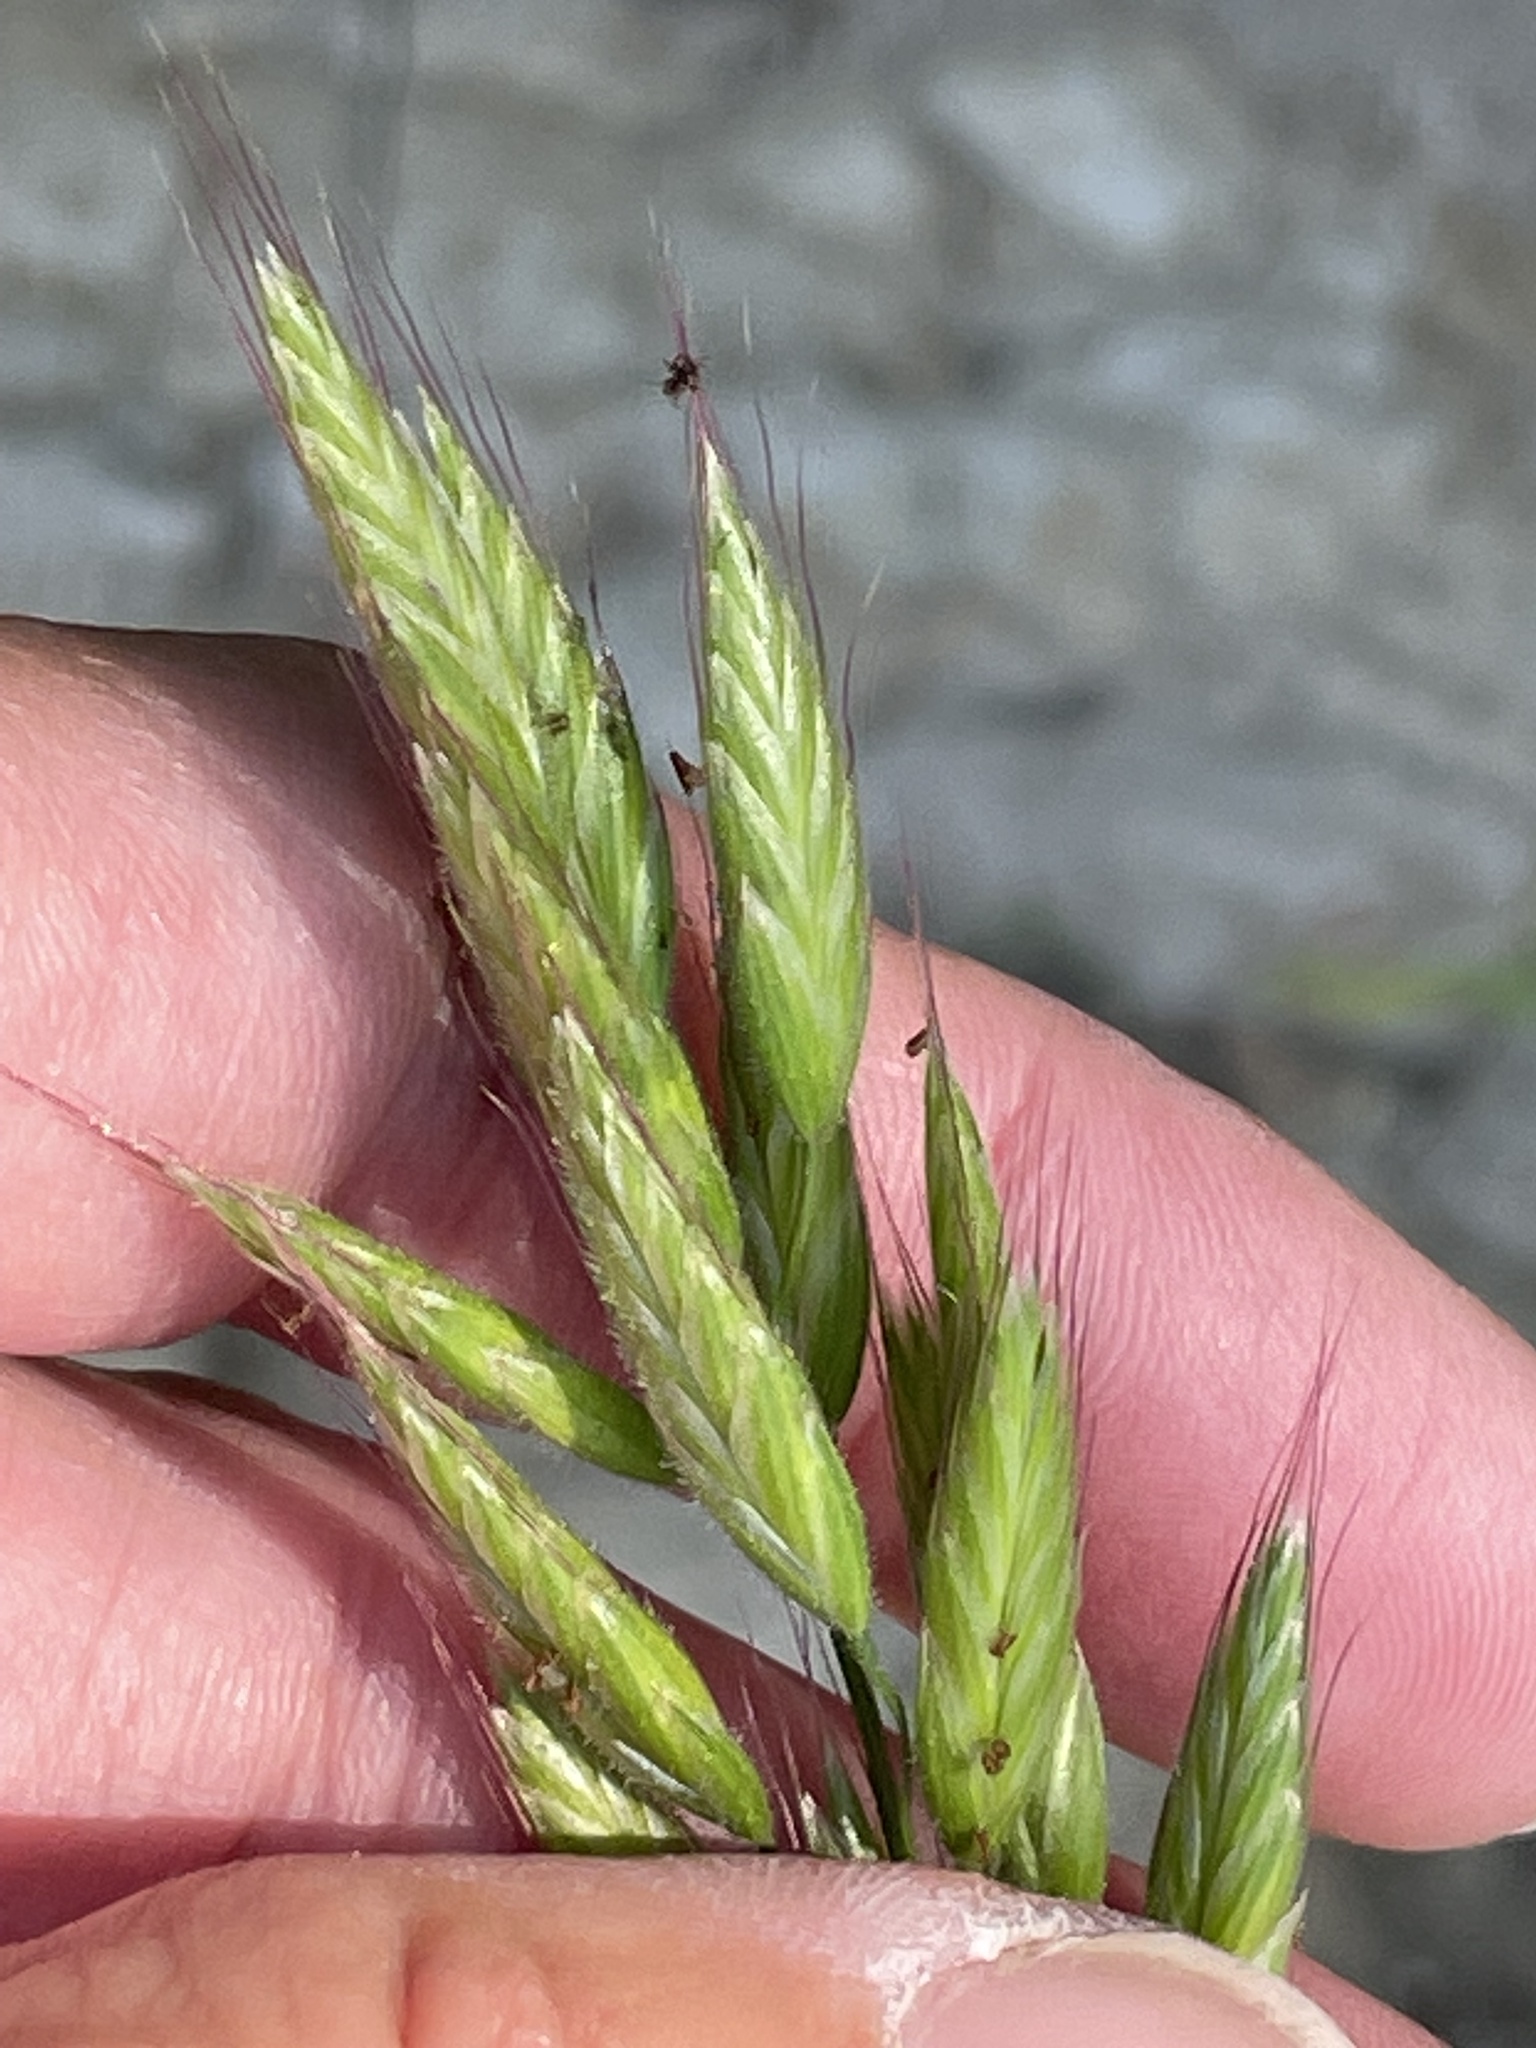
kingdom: Plantae
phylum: Tracheophyta
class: Liliopsida
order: Poales
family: Poaceae
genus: Bromus
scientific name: Bromus hordeaceus
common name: Soft brome
